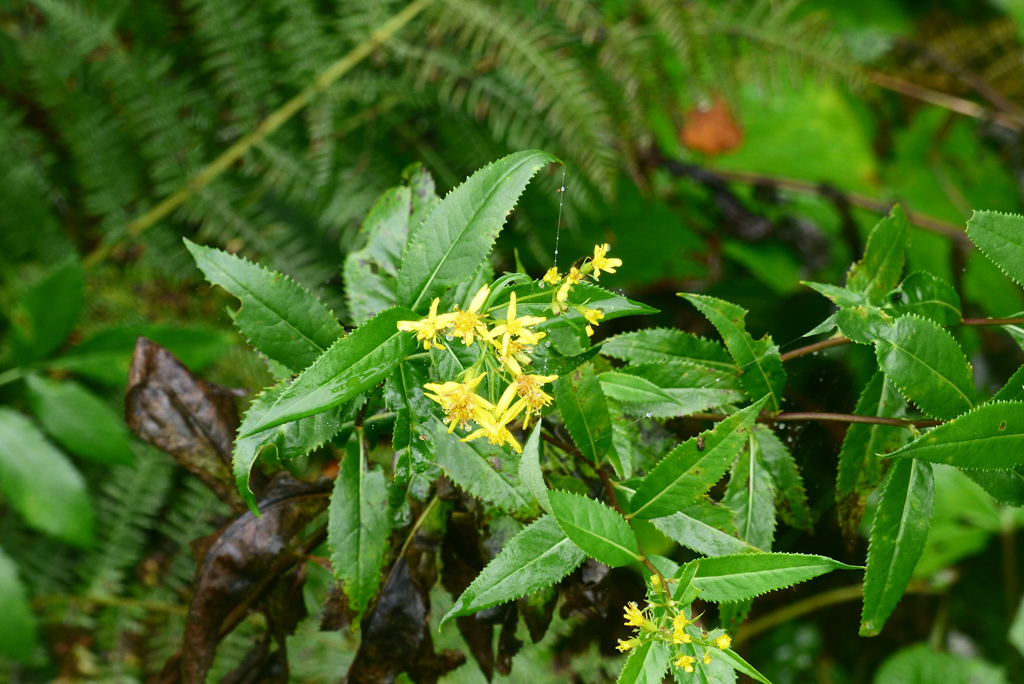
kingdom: Plantae
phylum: Tracheophyta
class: Magnoliopsida
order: Asterales
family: Asteraceae
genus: Senecio
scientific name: Senecio ovatus
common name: Wood ragwort
